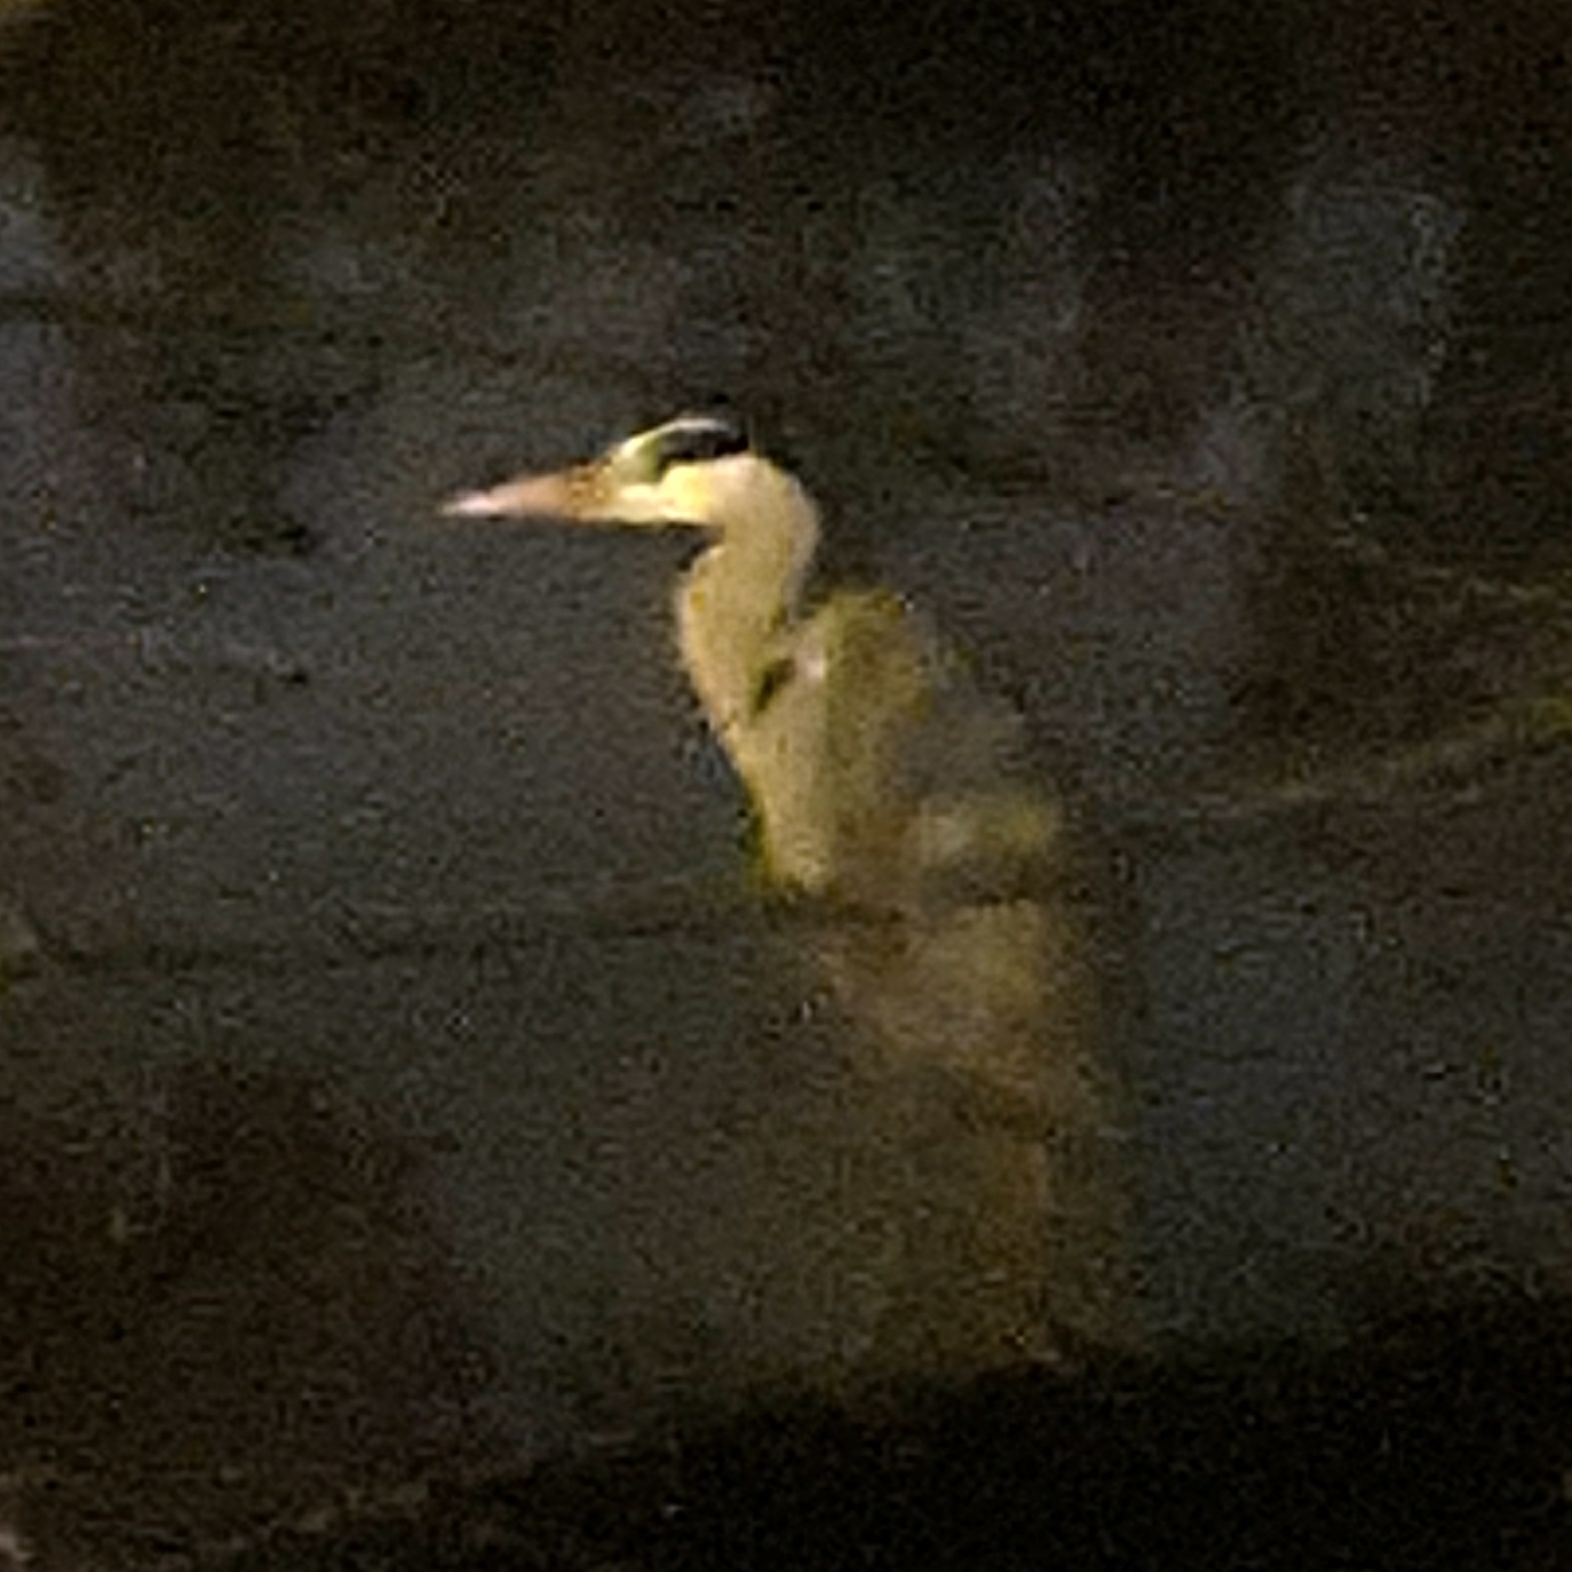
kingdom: Animalia
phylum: Chordata
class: Aves
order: Pelecaniformes
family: Ardeidae
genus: Ardea
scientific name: Ardea cinerea
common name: Grey heron
